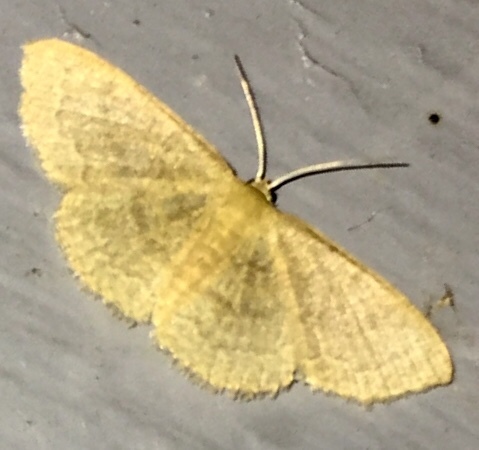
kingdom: Animalia
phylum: Arthropoda
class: Insecta
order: Lepidoptera
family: Geometridae
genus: Pleuroprucha
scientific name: Pleuroprucha insulsaria
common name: Common tan wave
